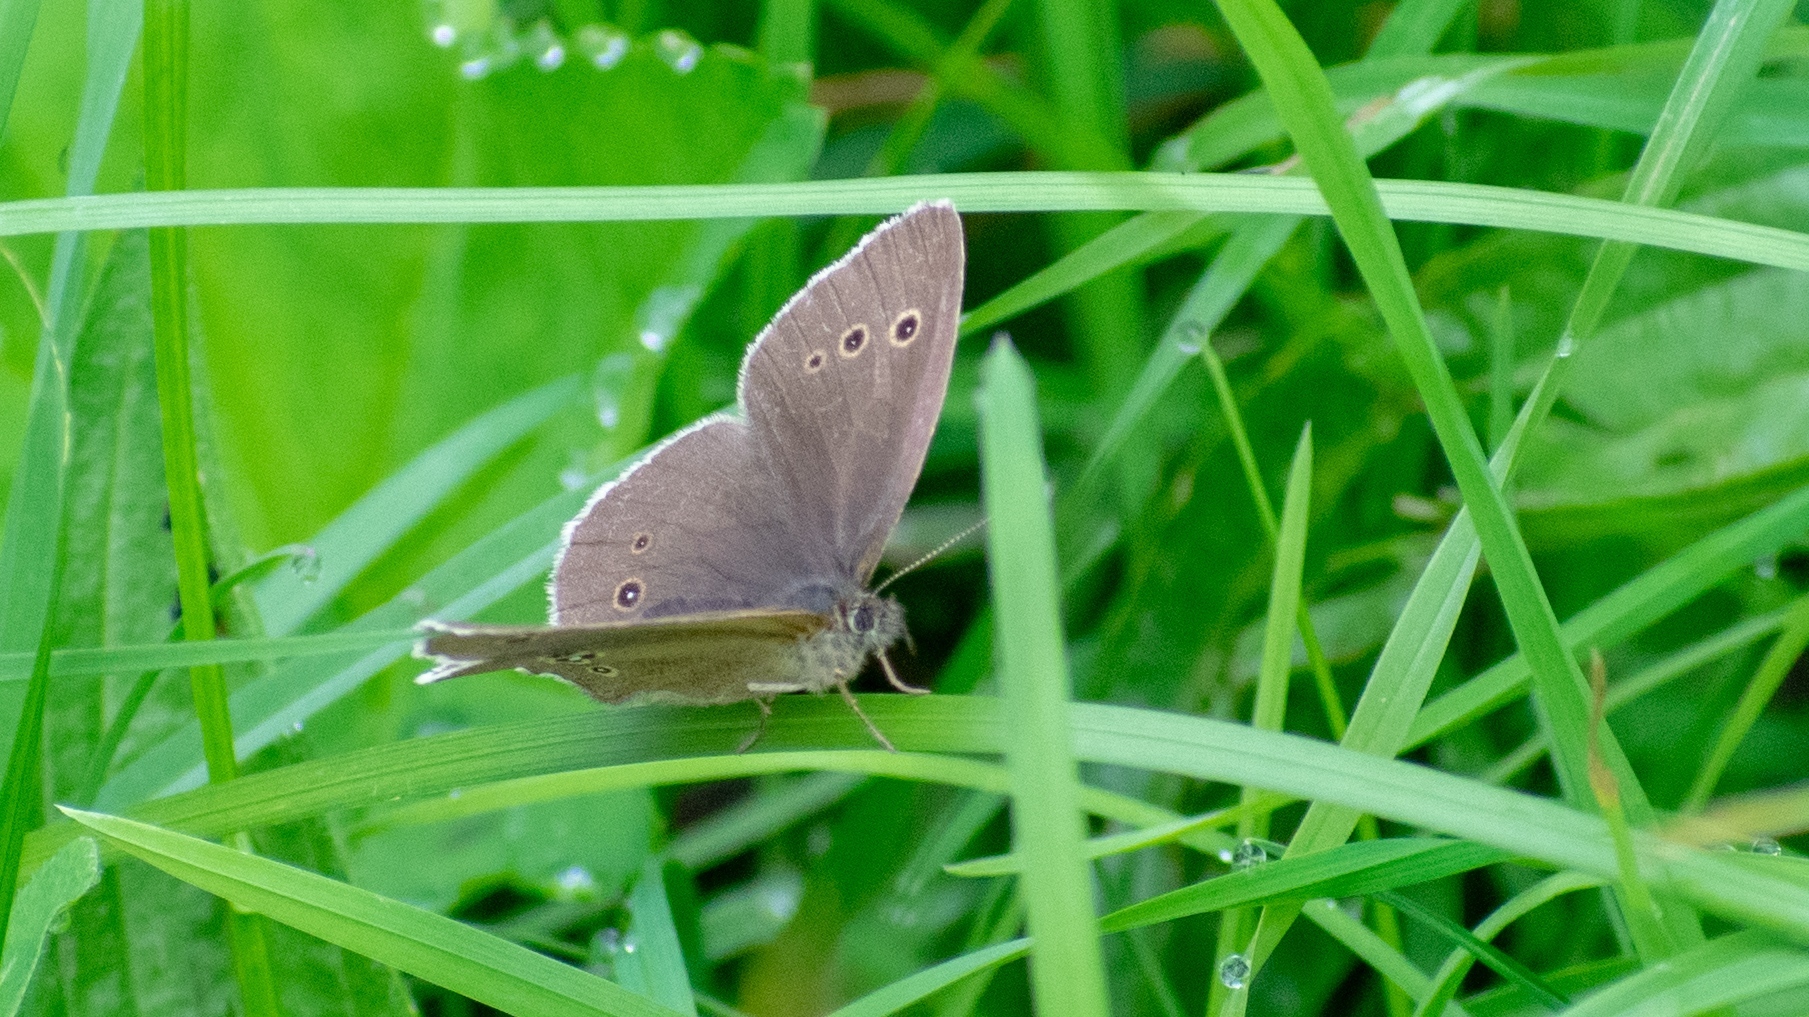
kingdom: Animalia
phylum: Arthropoda
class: Insecta
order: Lepidoptera
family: Nymphalidae
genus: Aphantopus
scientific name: Aphantopus hyperantus
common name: Ringlet
